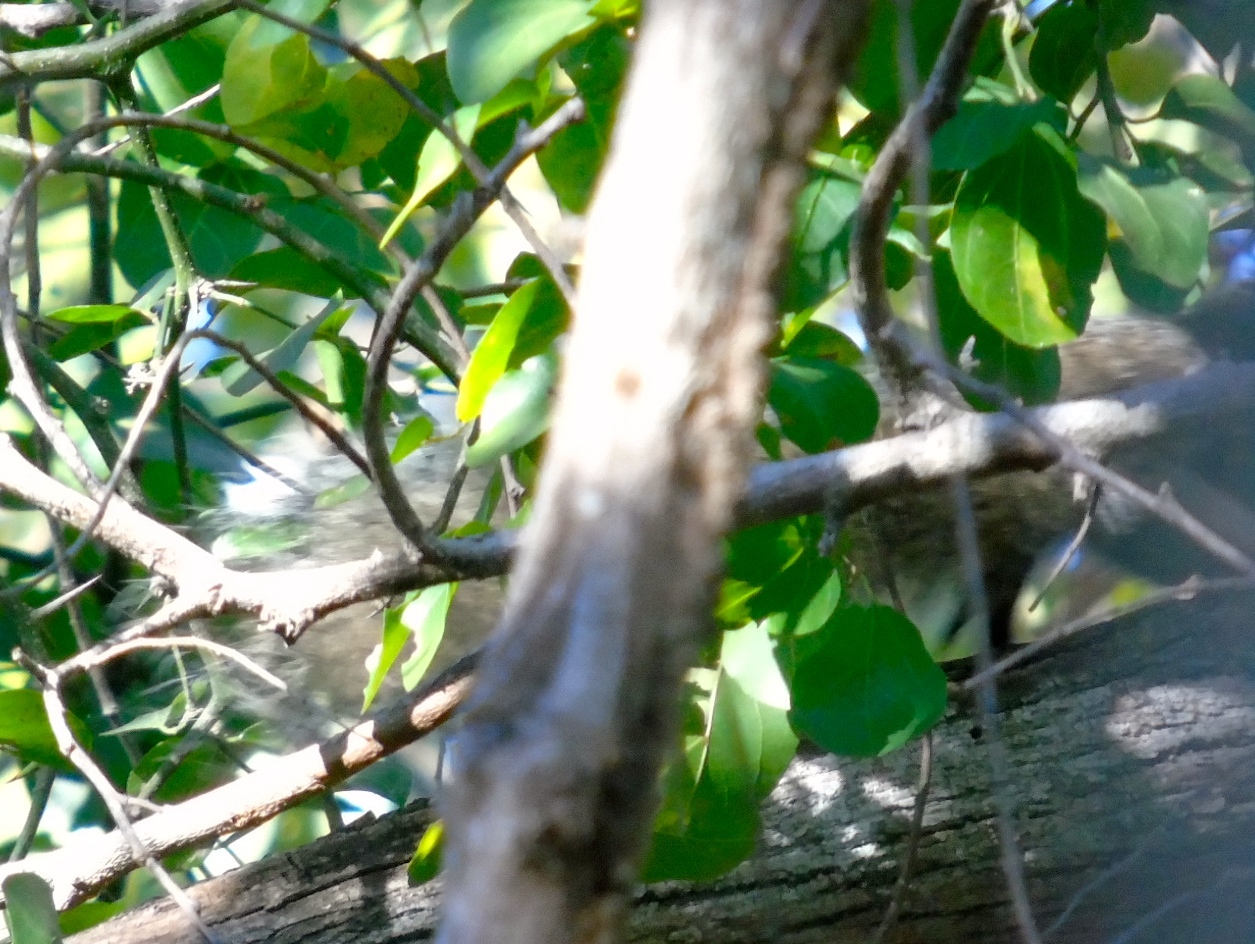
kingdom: Animalia
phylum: Chordata
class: Mammalia
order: Rodentia
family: Sciuridae
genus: Sciurus
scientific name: Sciurus colliaei
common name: Collie's squirrel
